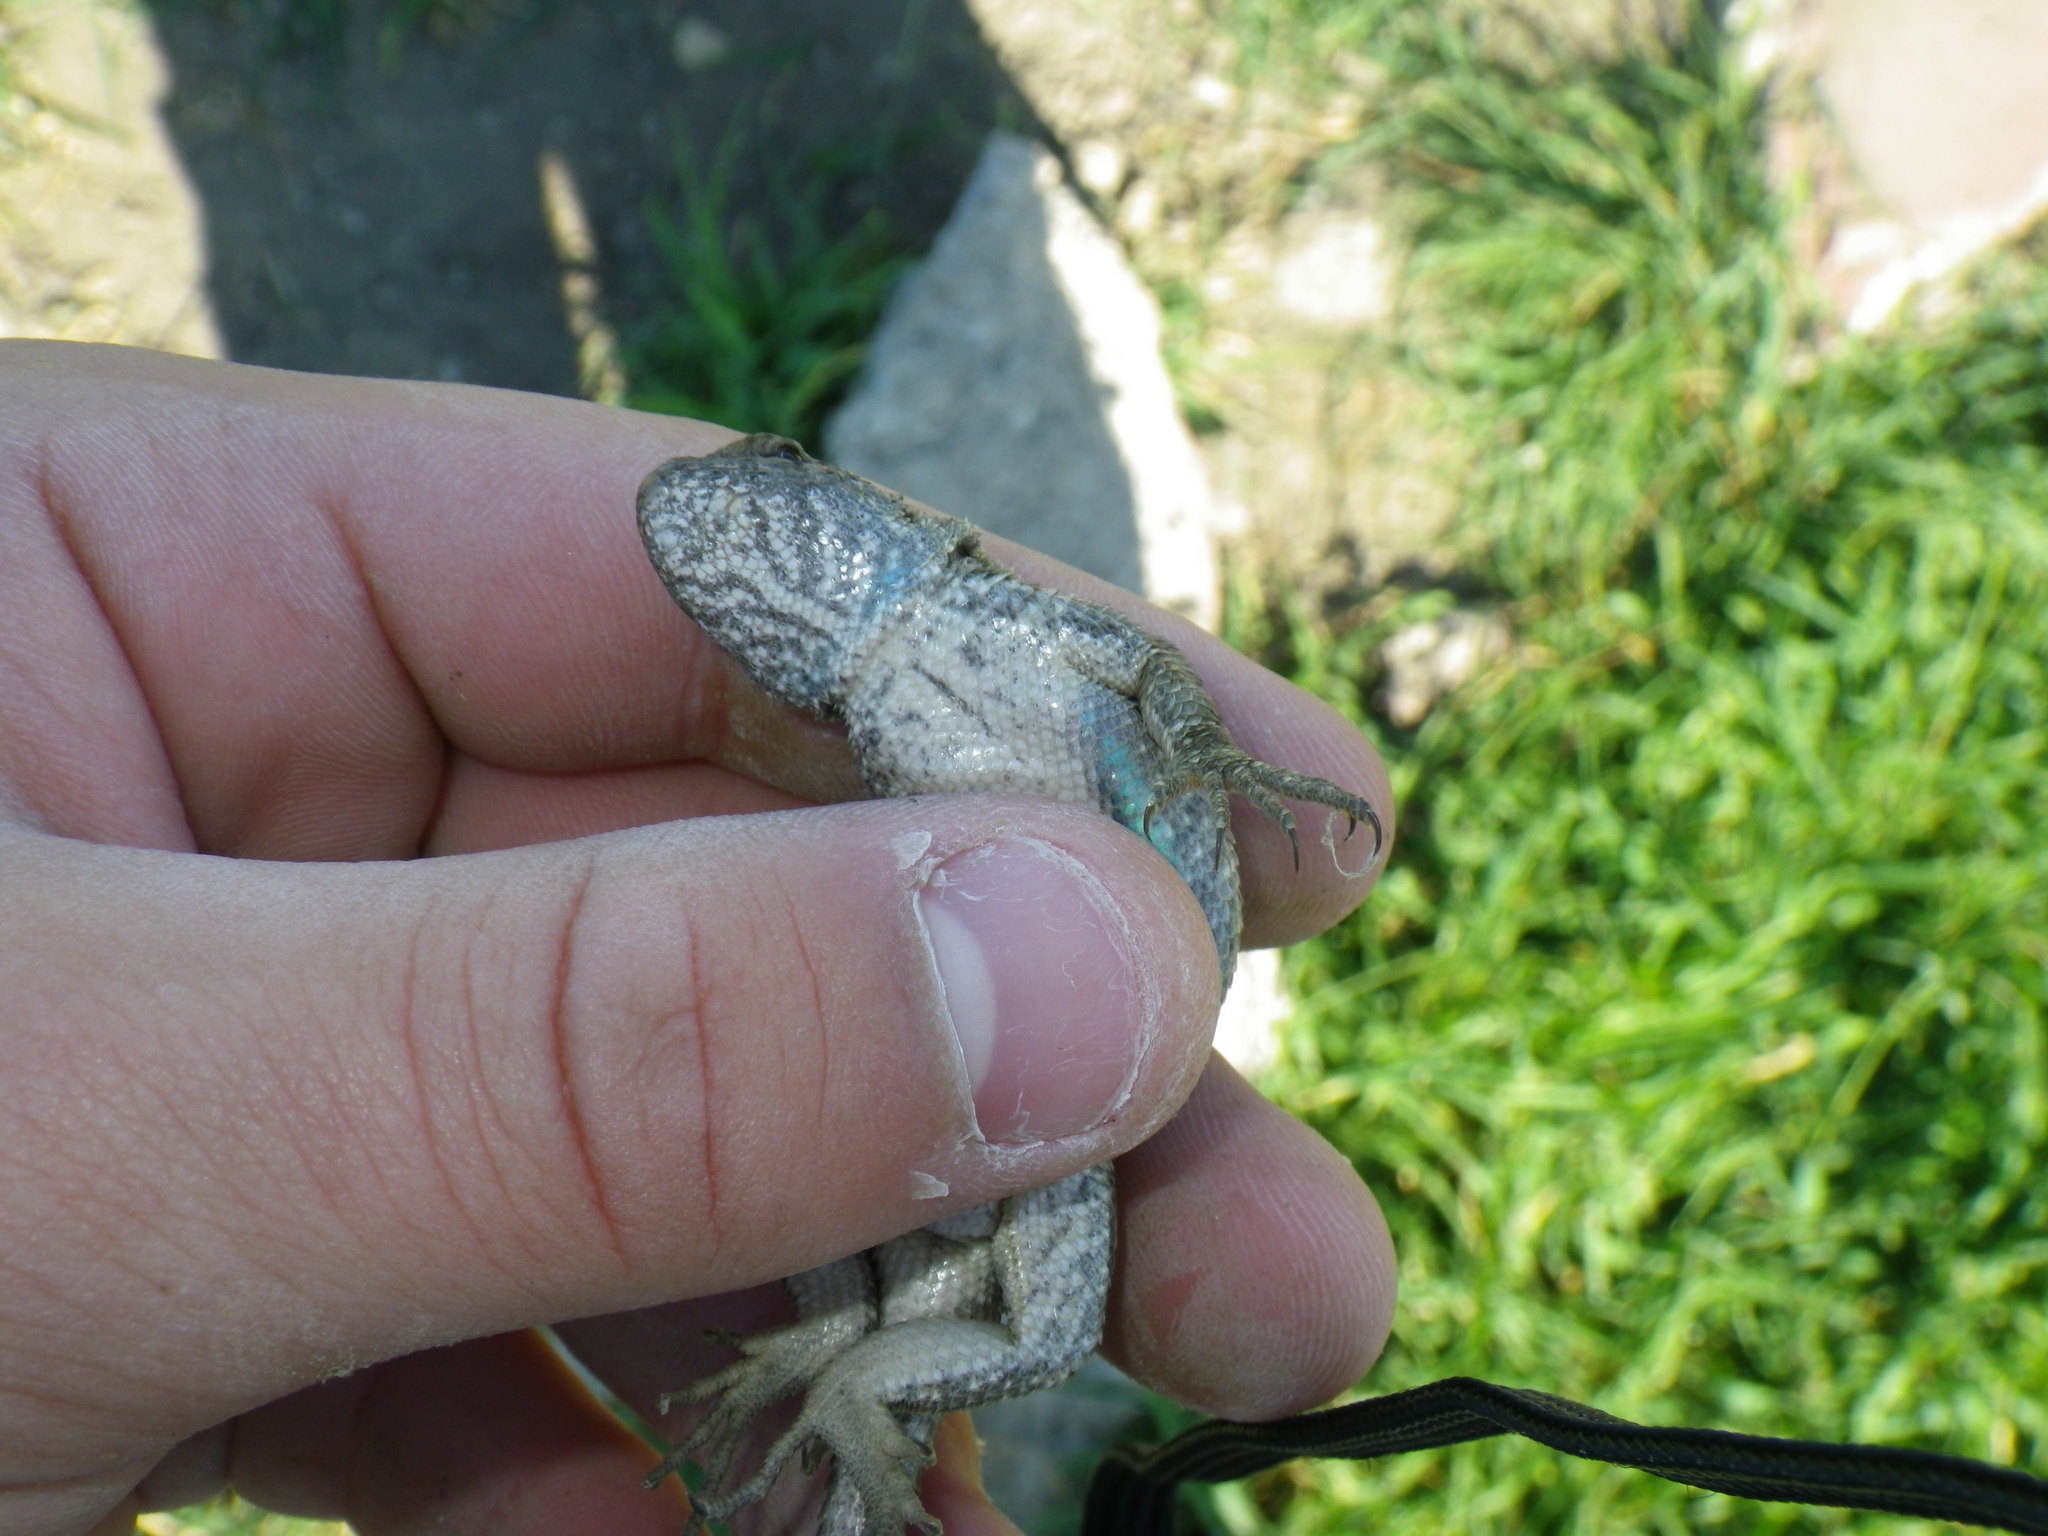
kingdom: Animalia
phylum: Chordata
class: Squamata
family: Phrynosomatidae
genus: Sceloporus
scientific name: Sceloporus occidentalis
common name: Western fence lizard
